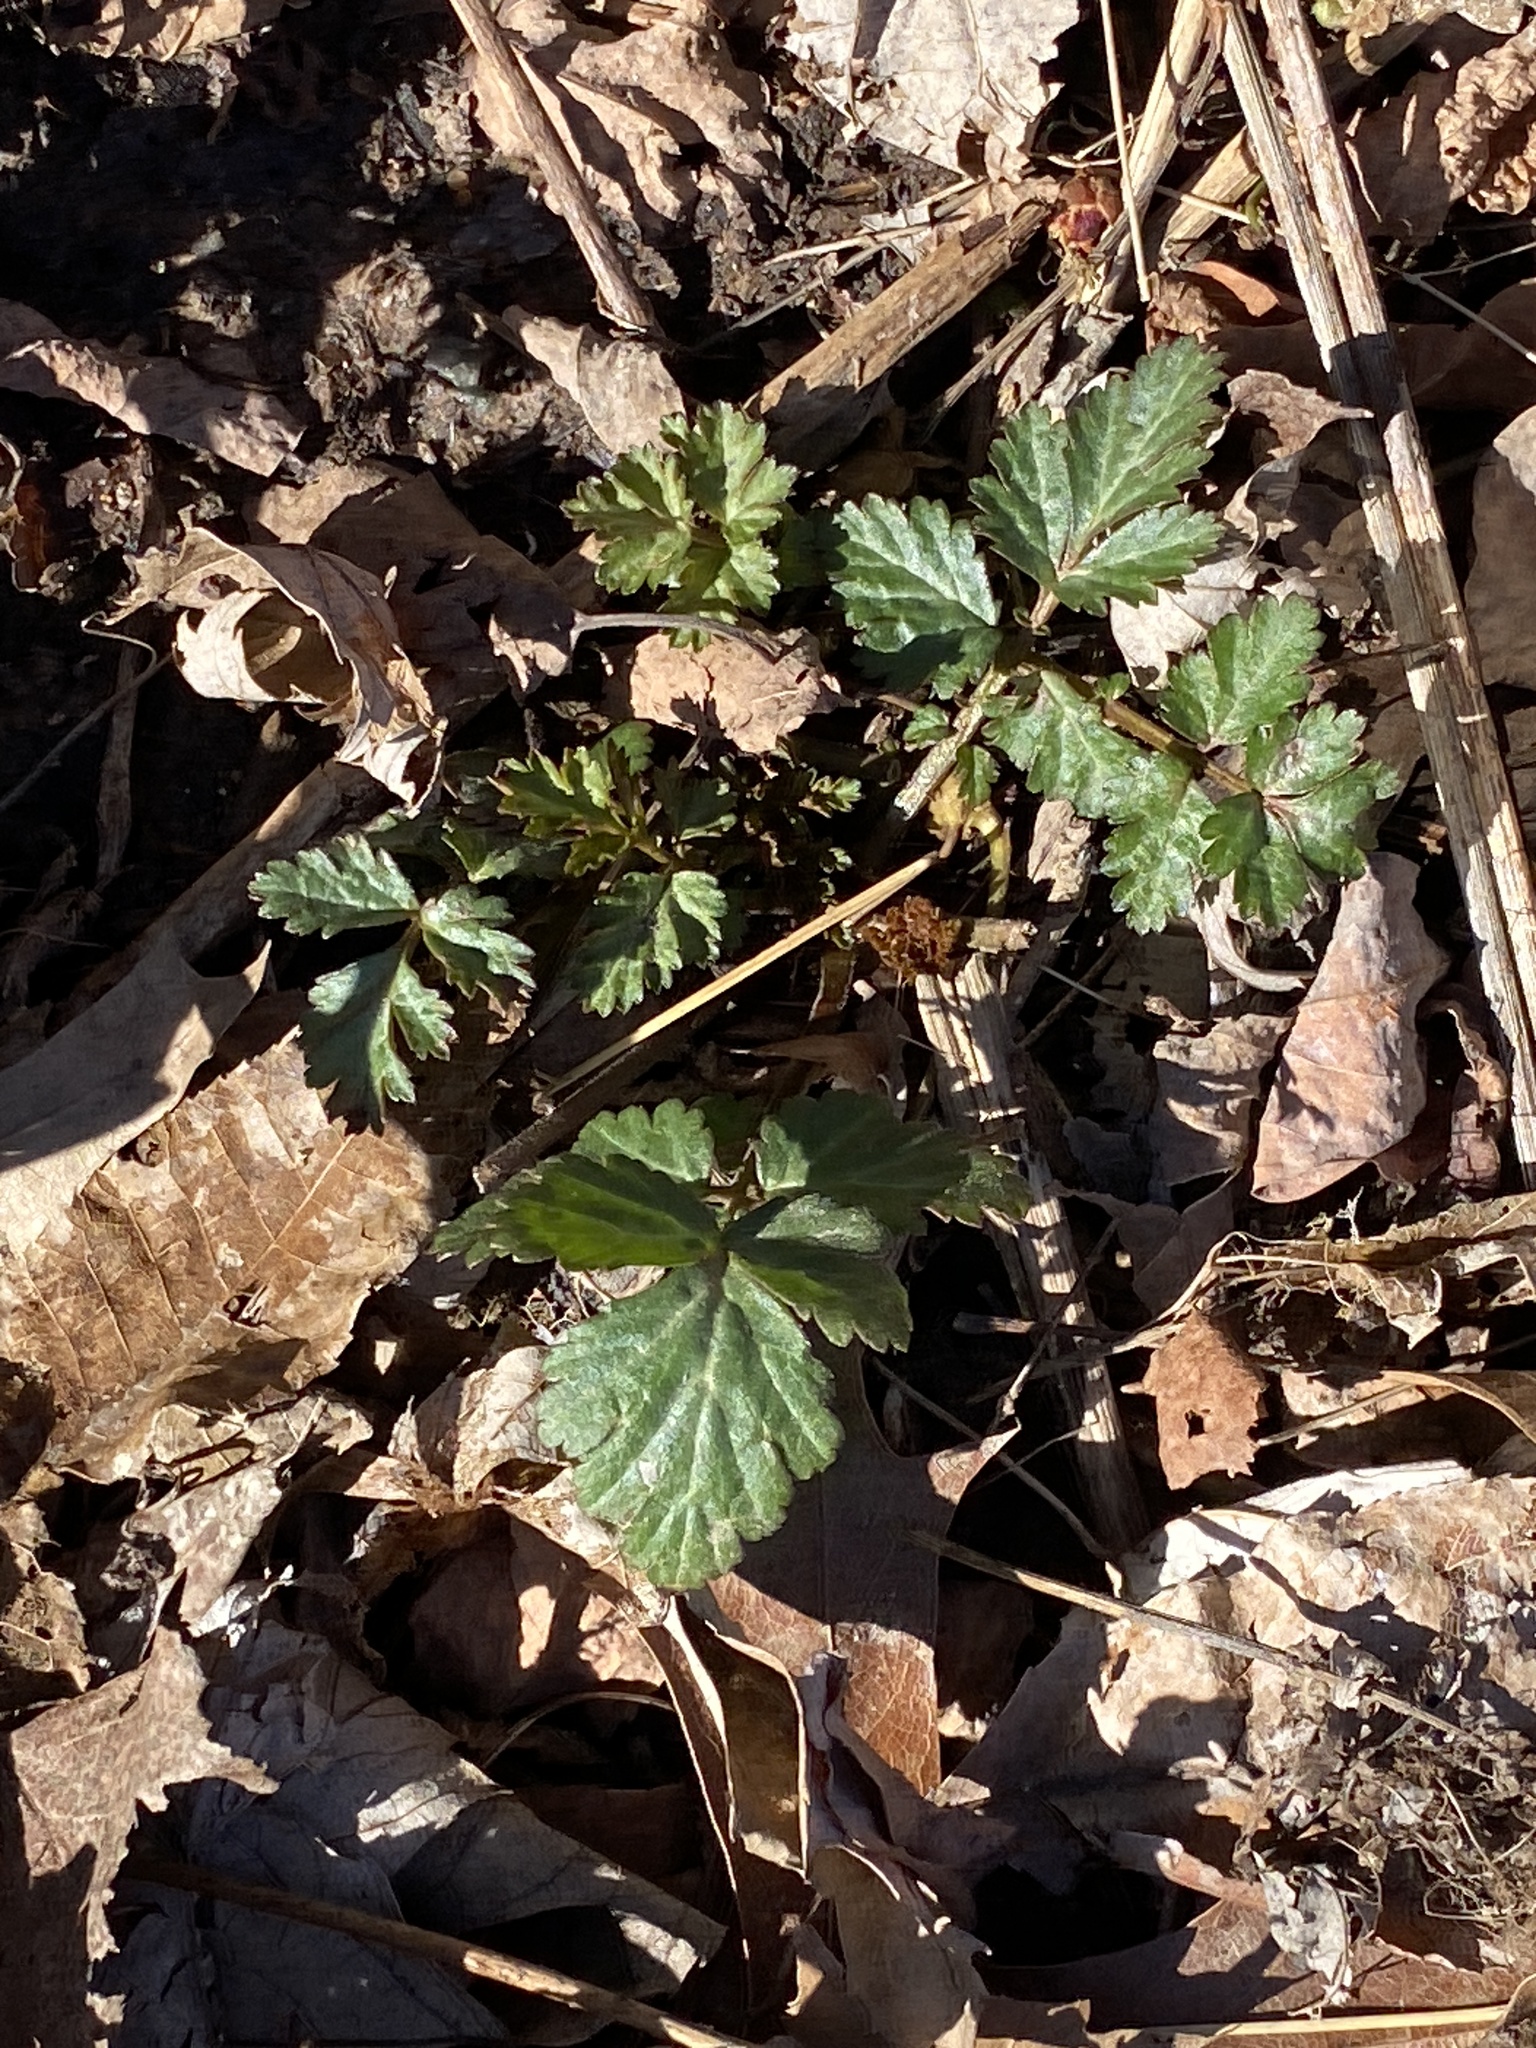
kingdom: Plantae
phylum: Tracheophyta
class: Magnoliopsida
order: Rosales
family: Rosaceae
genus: Geum
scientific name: Geum canadense
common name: White avens
